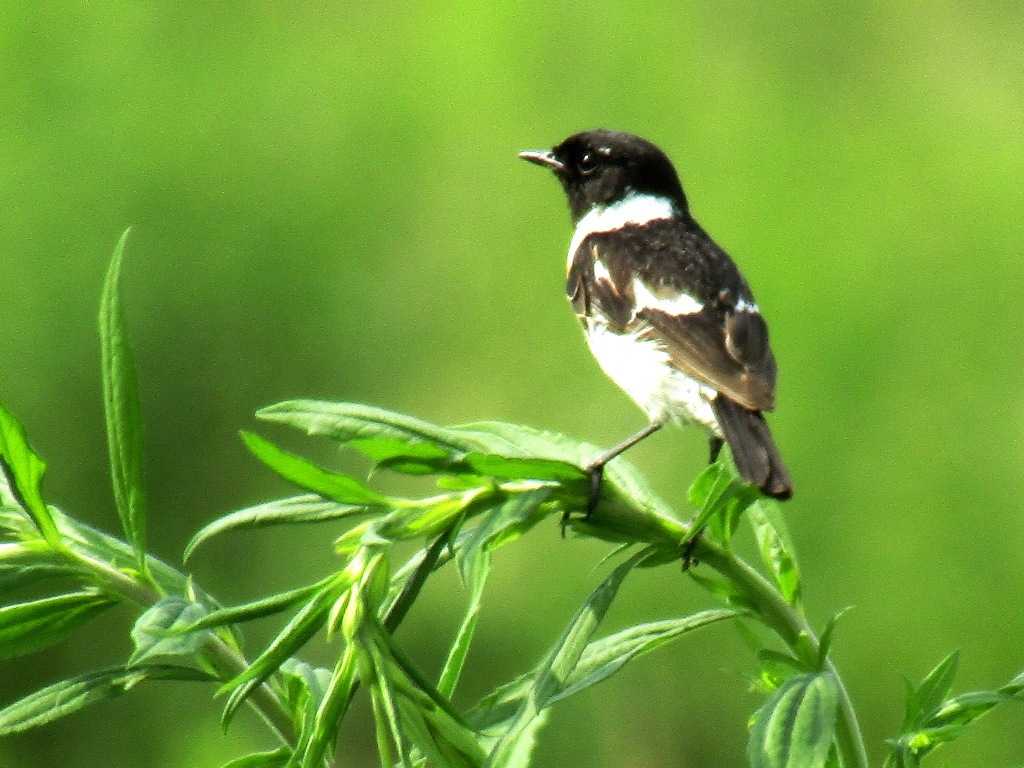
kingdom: Animalia
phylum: Chordata
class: Aves
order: Passeriformes
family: Muscicapidae
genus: Saxicola
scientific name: Saxicola maurus
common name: Siberian stonechat
